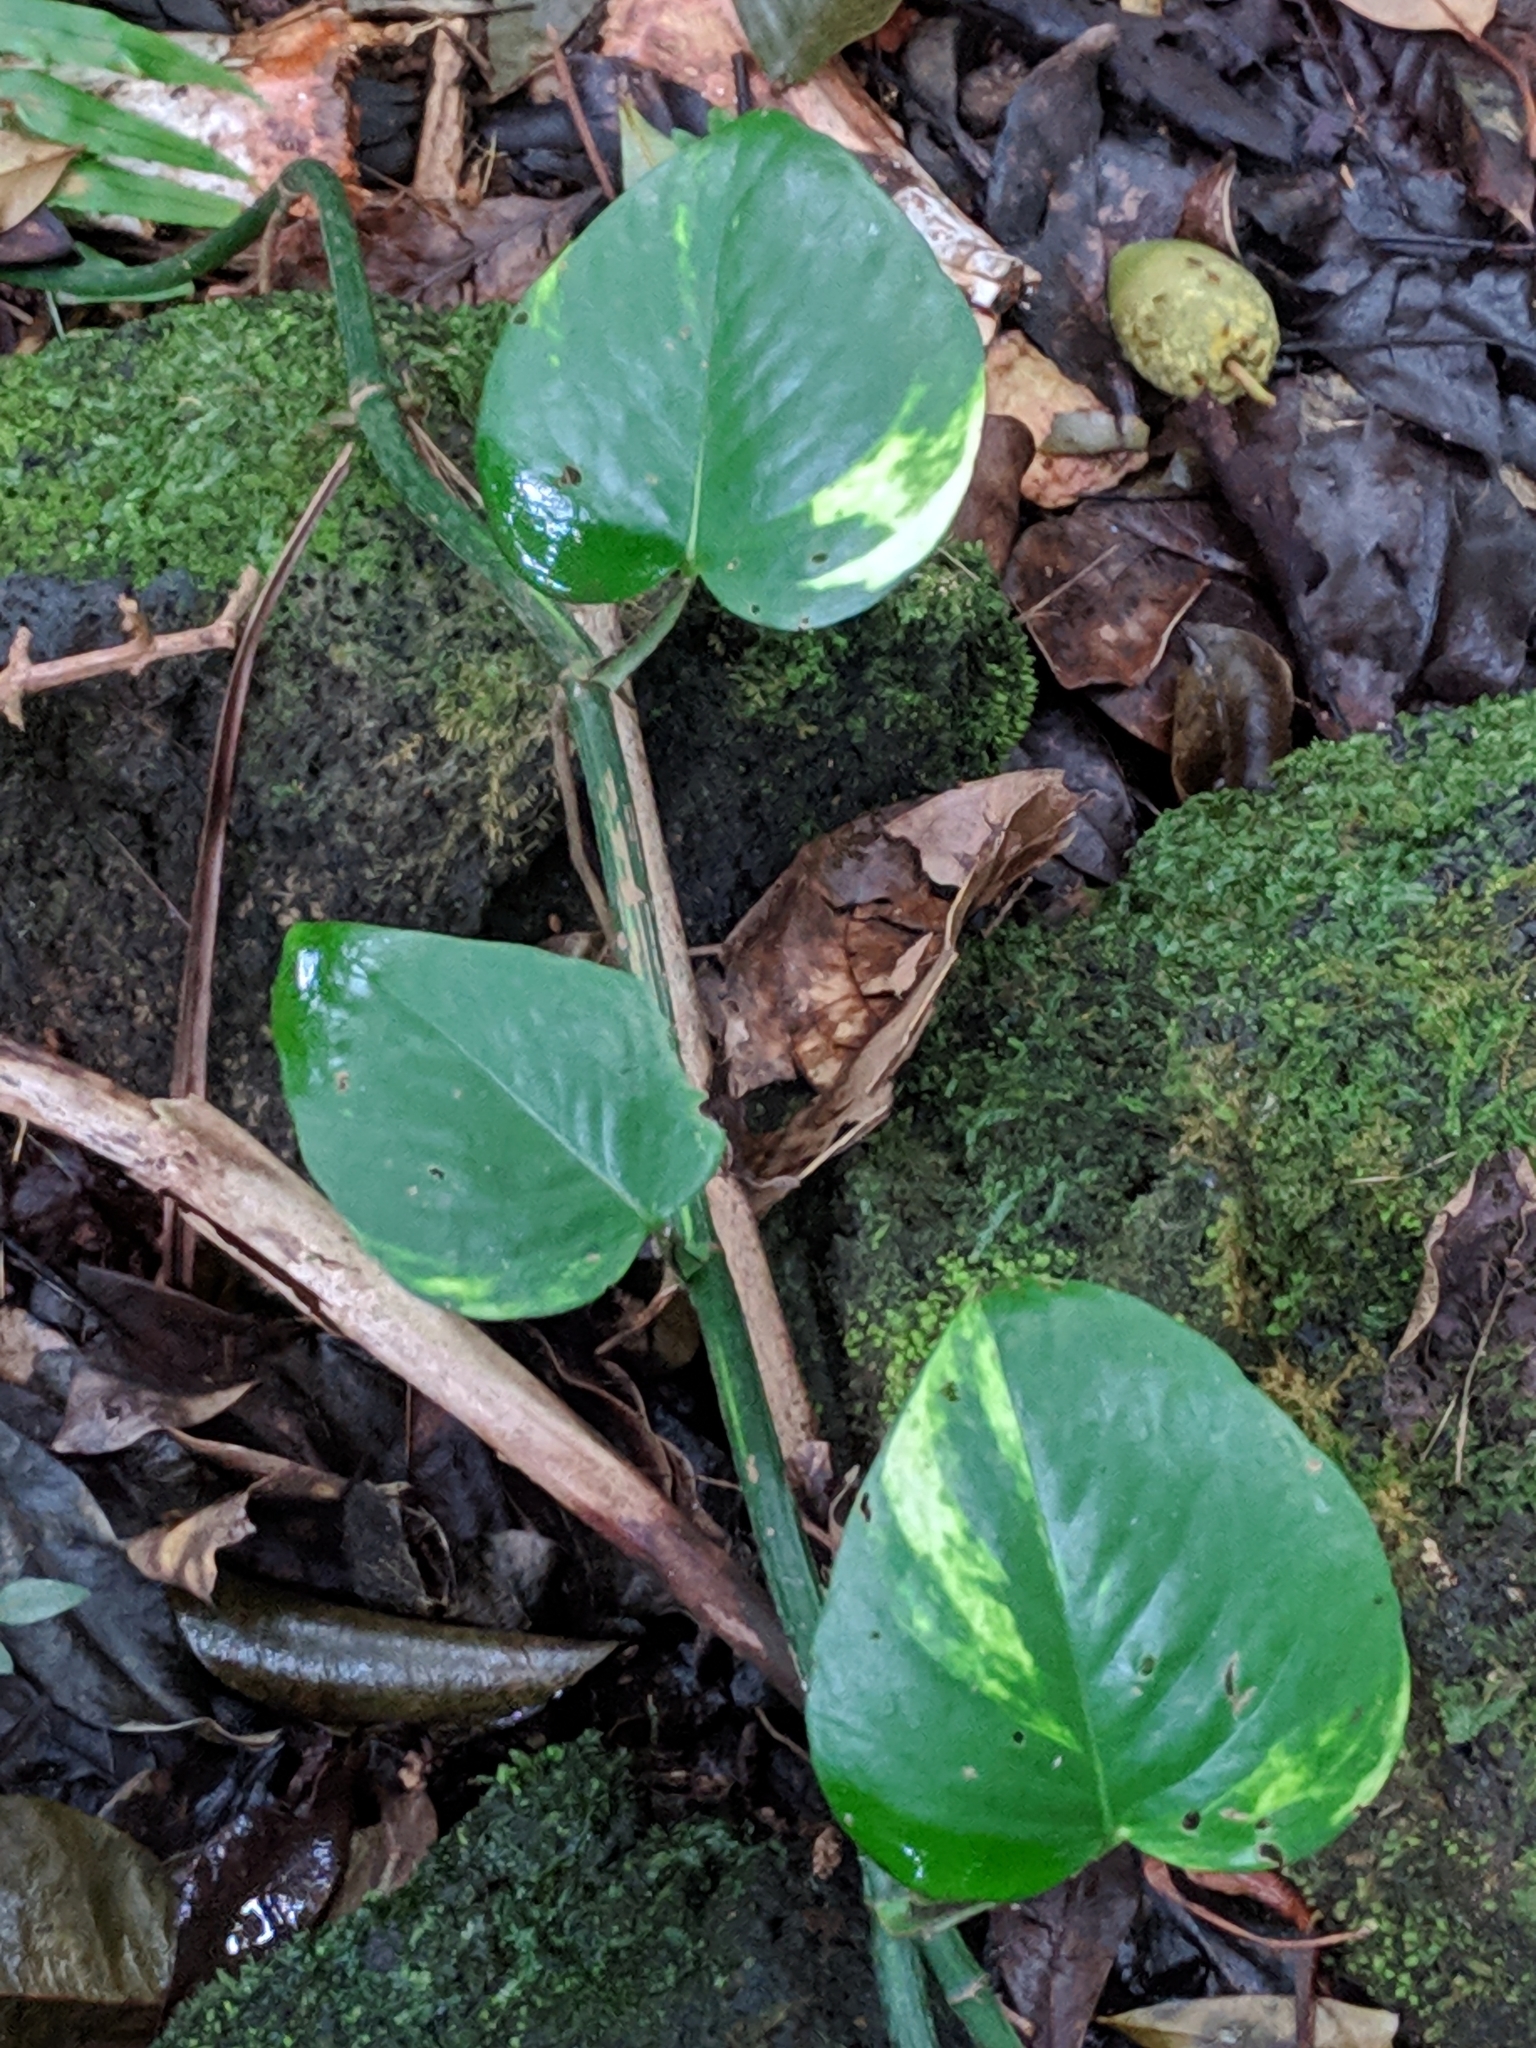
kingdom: Plantae
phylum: Tracheophyta
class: Liliopsida
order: Alismatales
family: Araceae
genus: Epipremnum
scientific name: Epipremnum aureum
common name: Golden hunter's-robe
